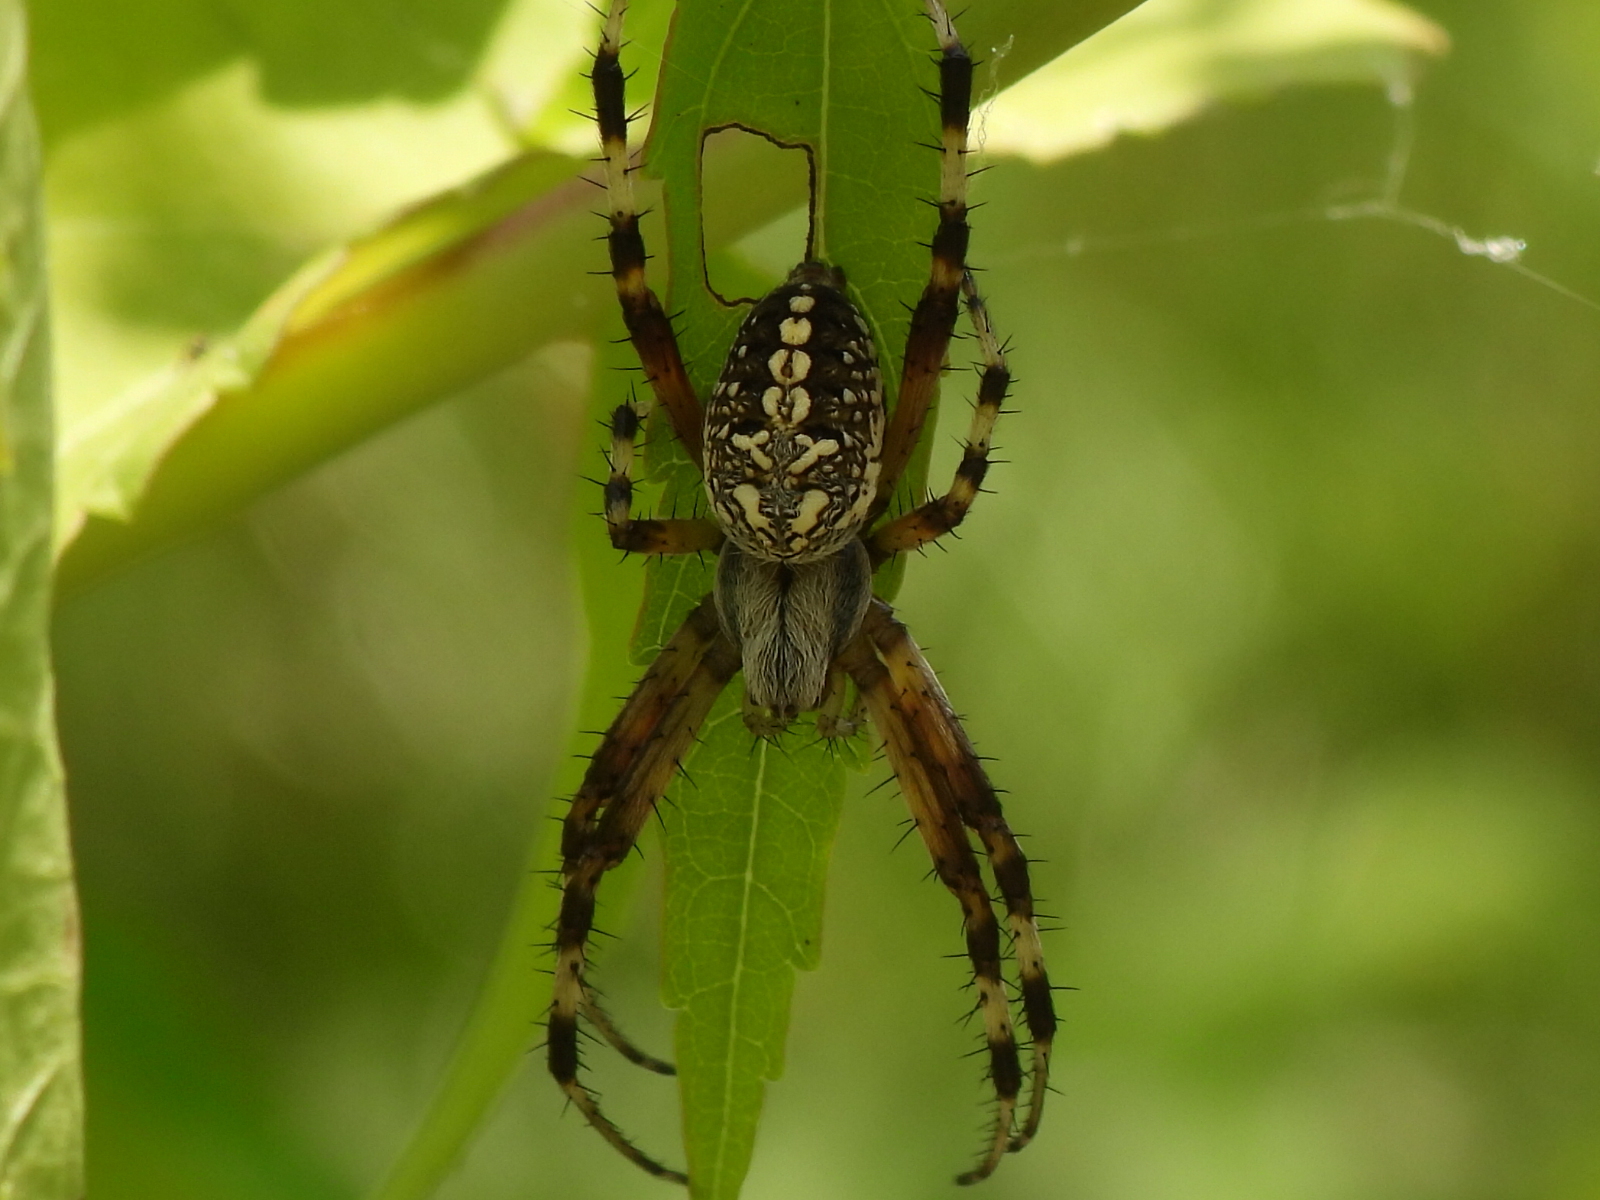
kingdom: Animalia
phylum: Arthropoda
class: Arachnida
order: Araneae
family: Araneidae
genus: Neoscona
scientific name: Neoscona oaxacensis
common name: Orb weavers
